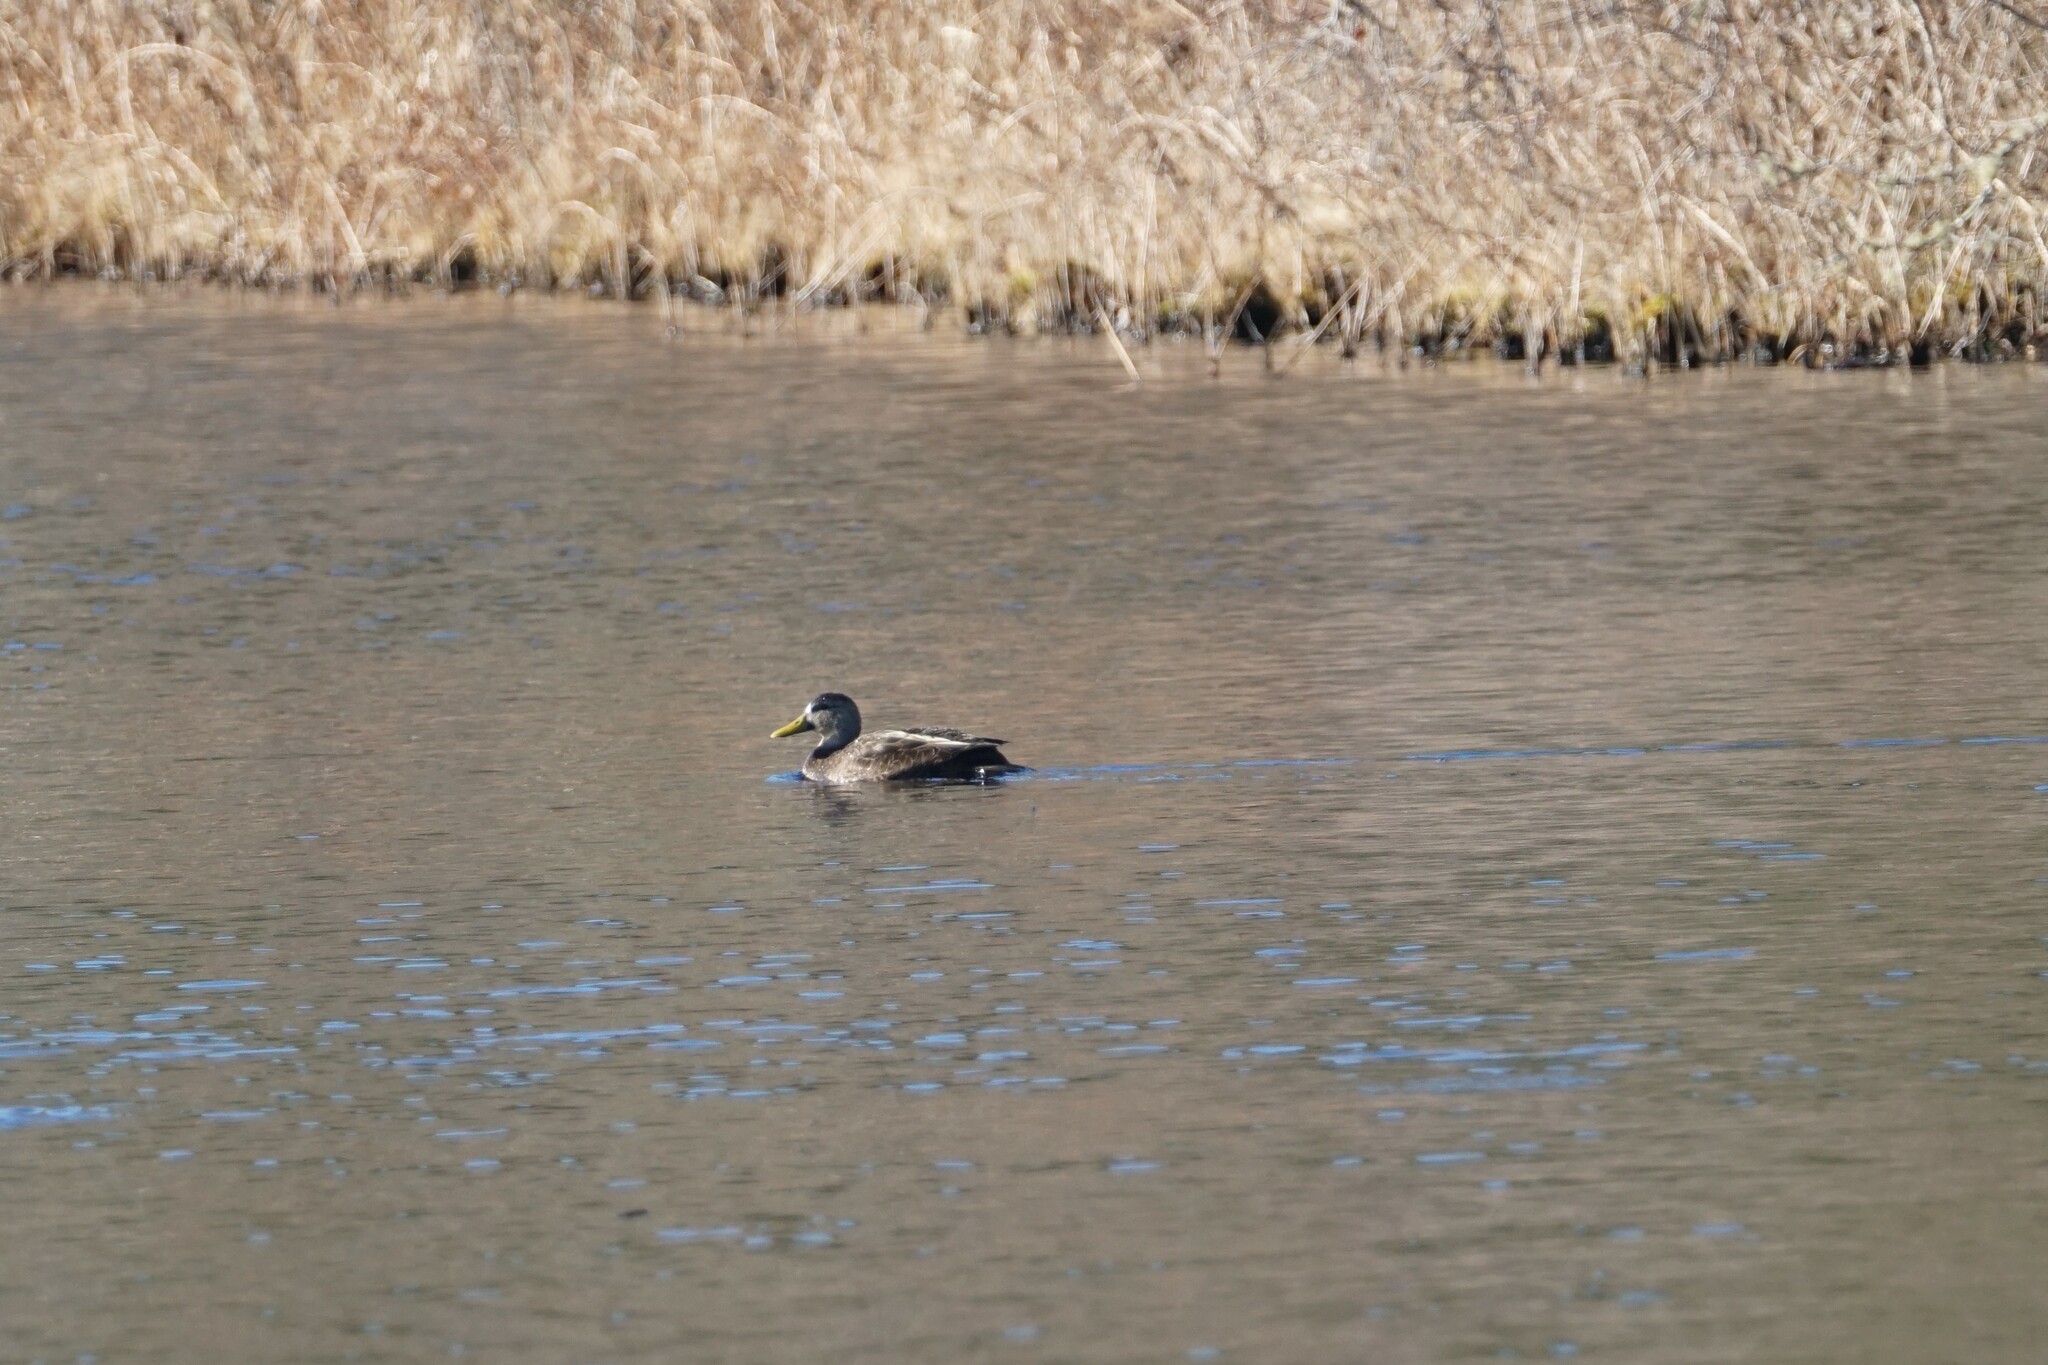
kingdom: Animalia
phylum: Chordata
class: Aves
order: Anseriformes
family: Anatidae
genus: Anas
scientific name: Anas rubripes
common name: American black duck
